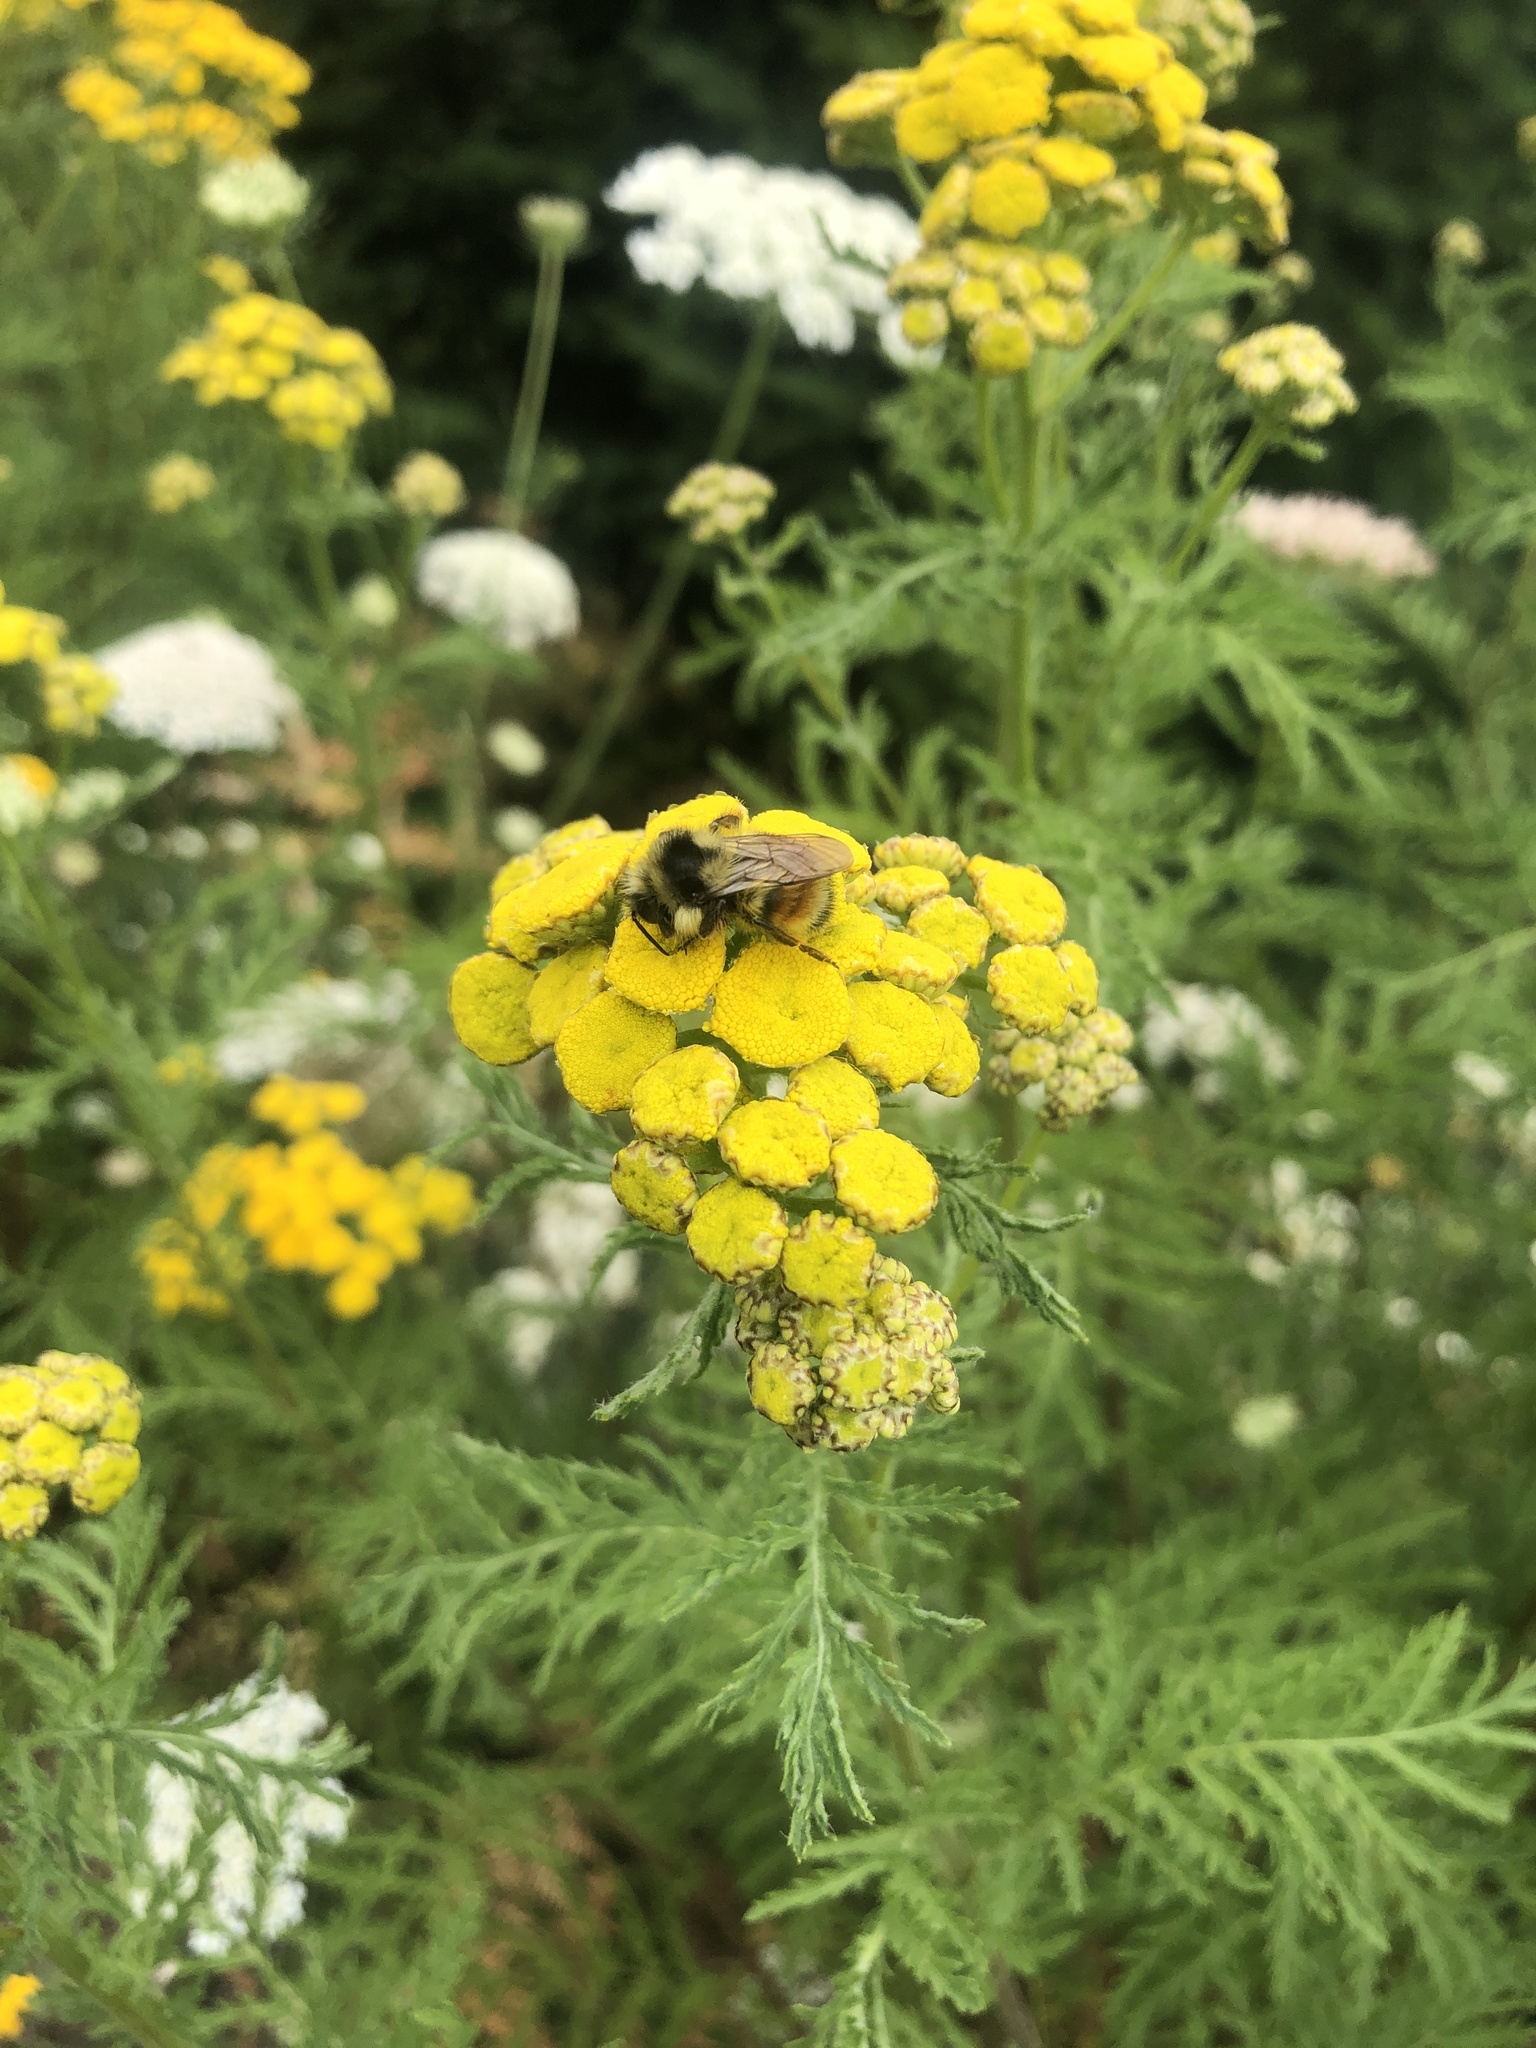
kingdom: Animalia
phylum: Arthropoda
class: Insecta
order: Hymenoptera
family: Apidae
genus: Bombus
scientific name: Bombus vancouverensis
